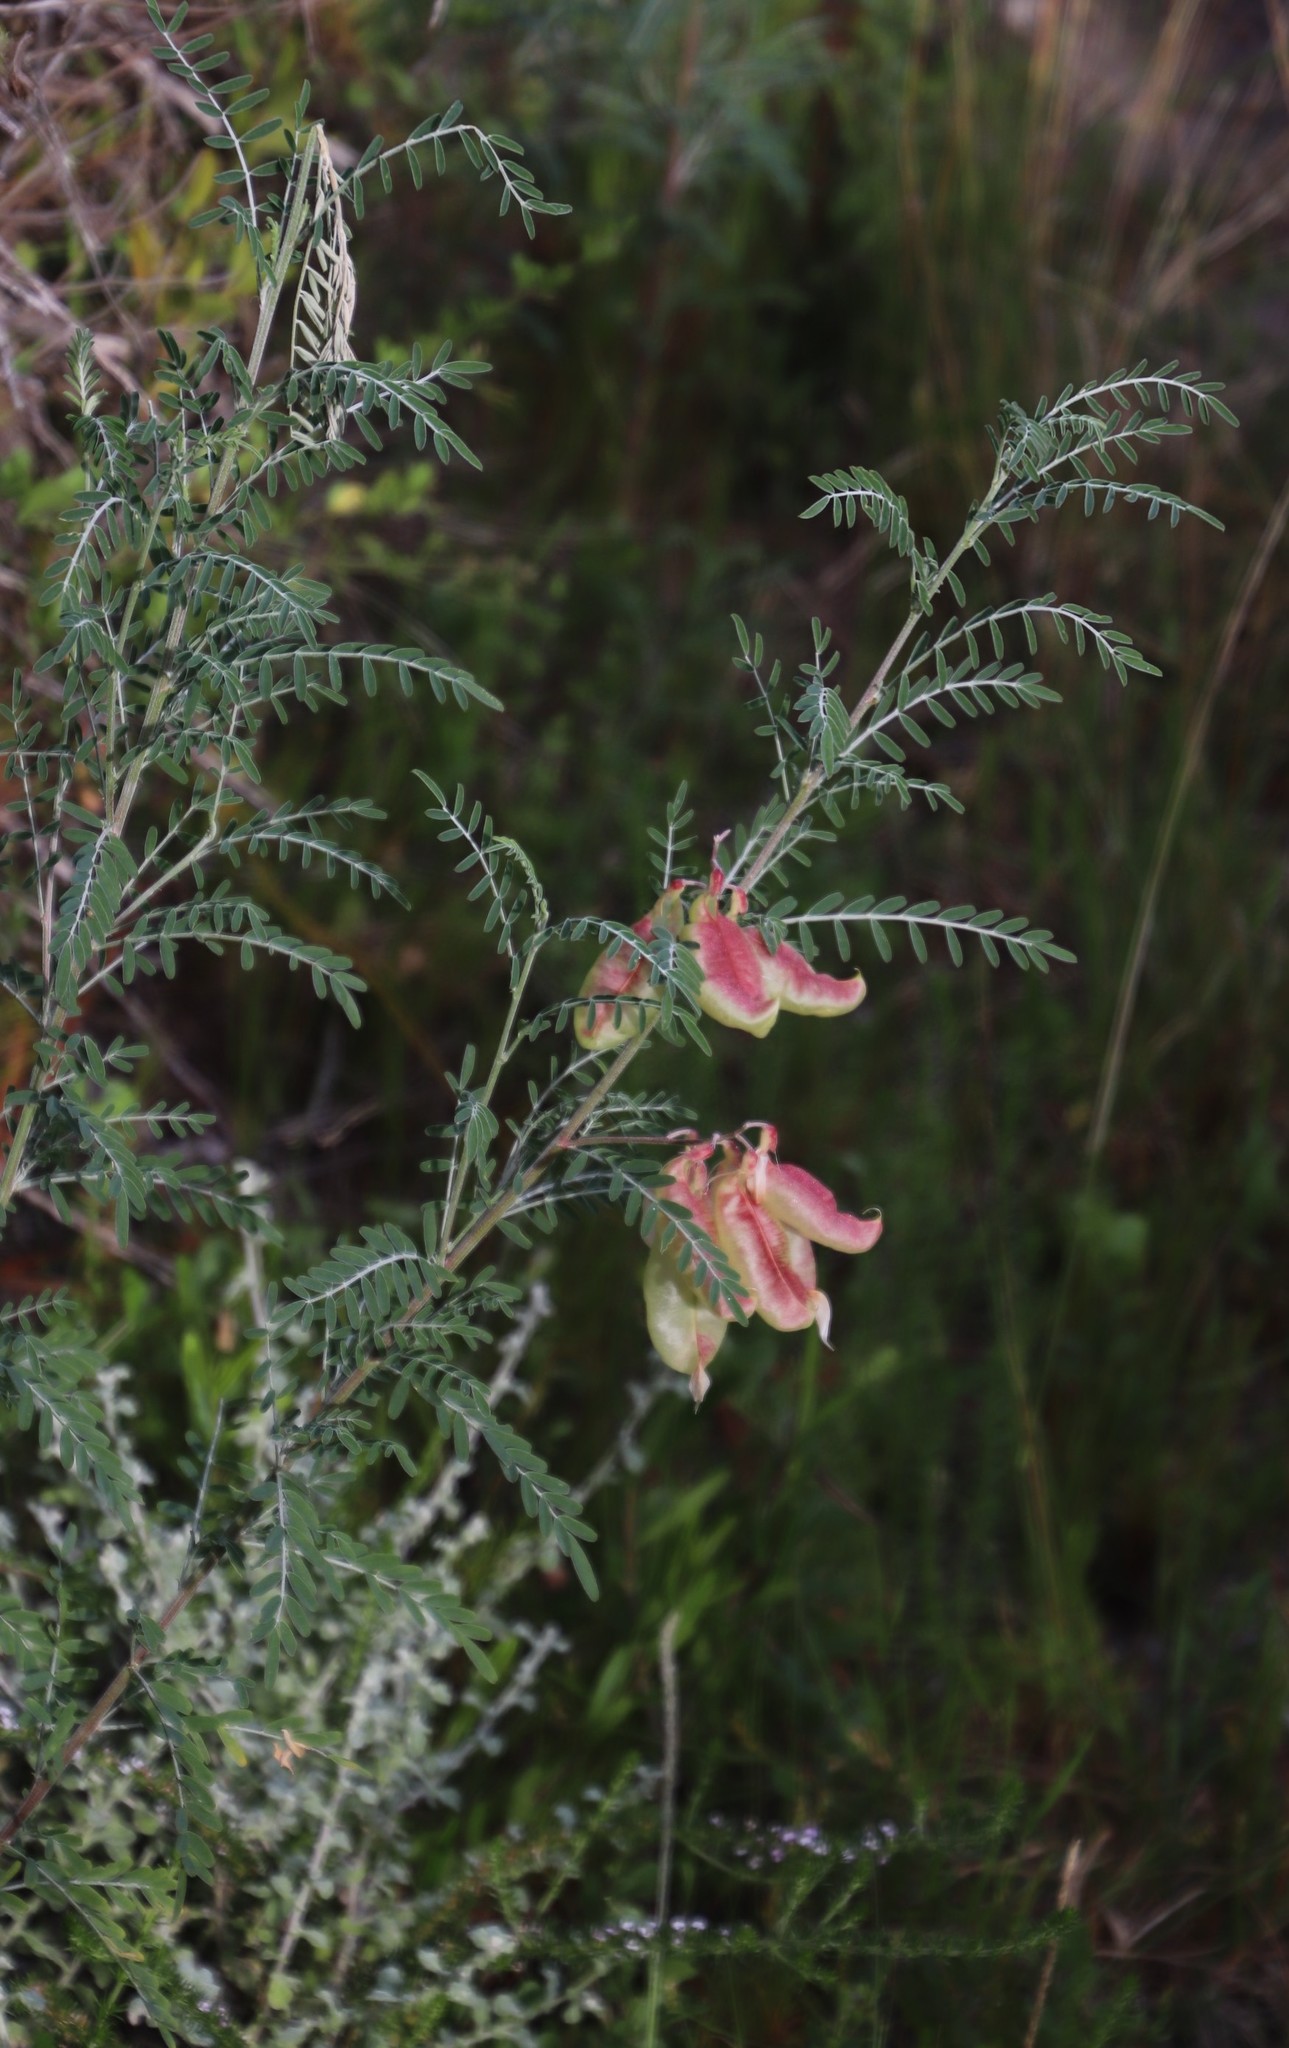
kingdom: Plantae
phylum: Tracheophyta
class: Magnoliopsida
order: Fabales
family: Fabaceae
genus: Lessertia
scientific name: Lessertia frutescens
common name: Balloon-pea
